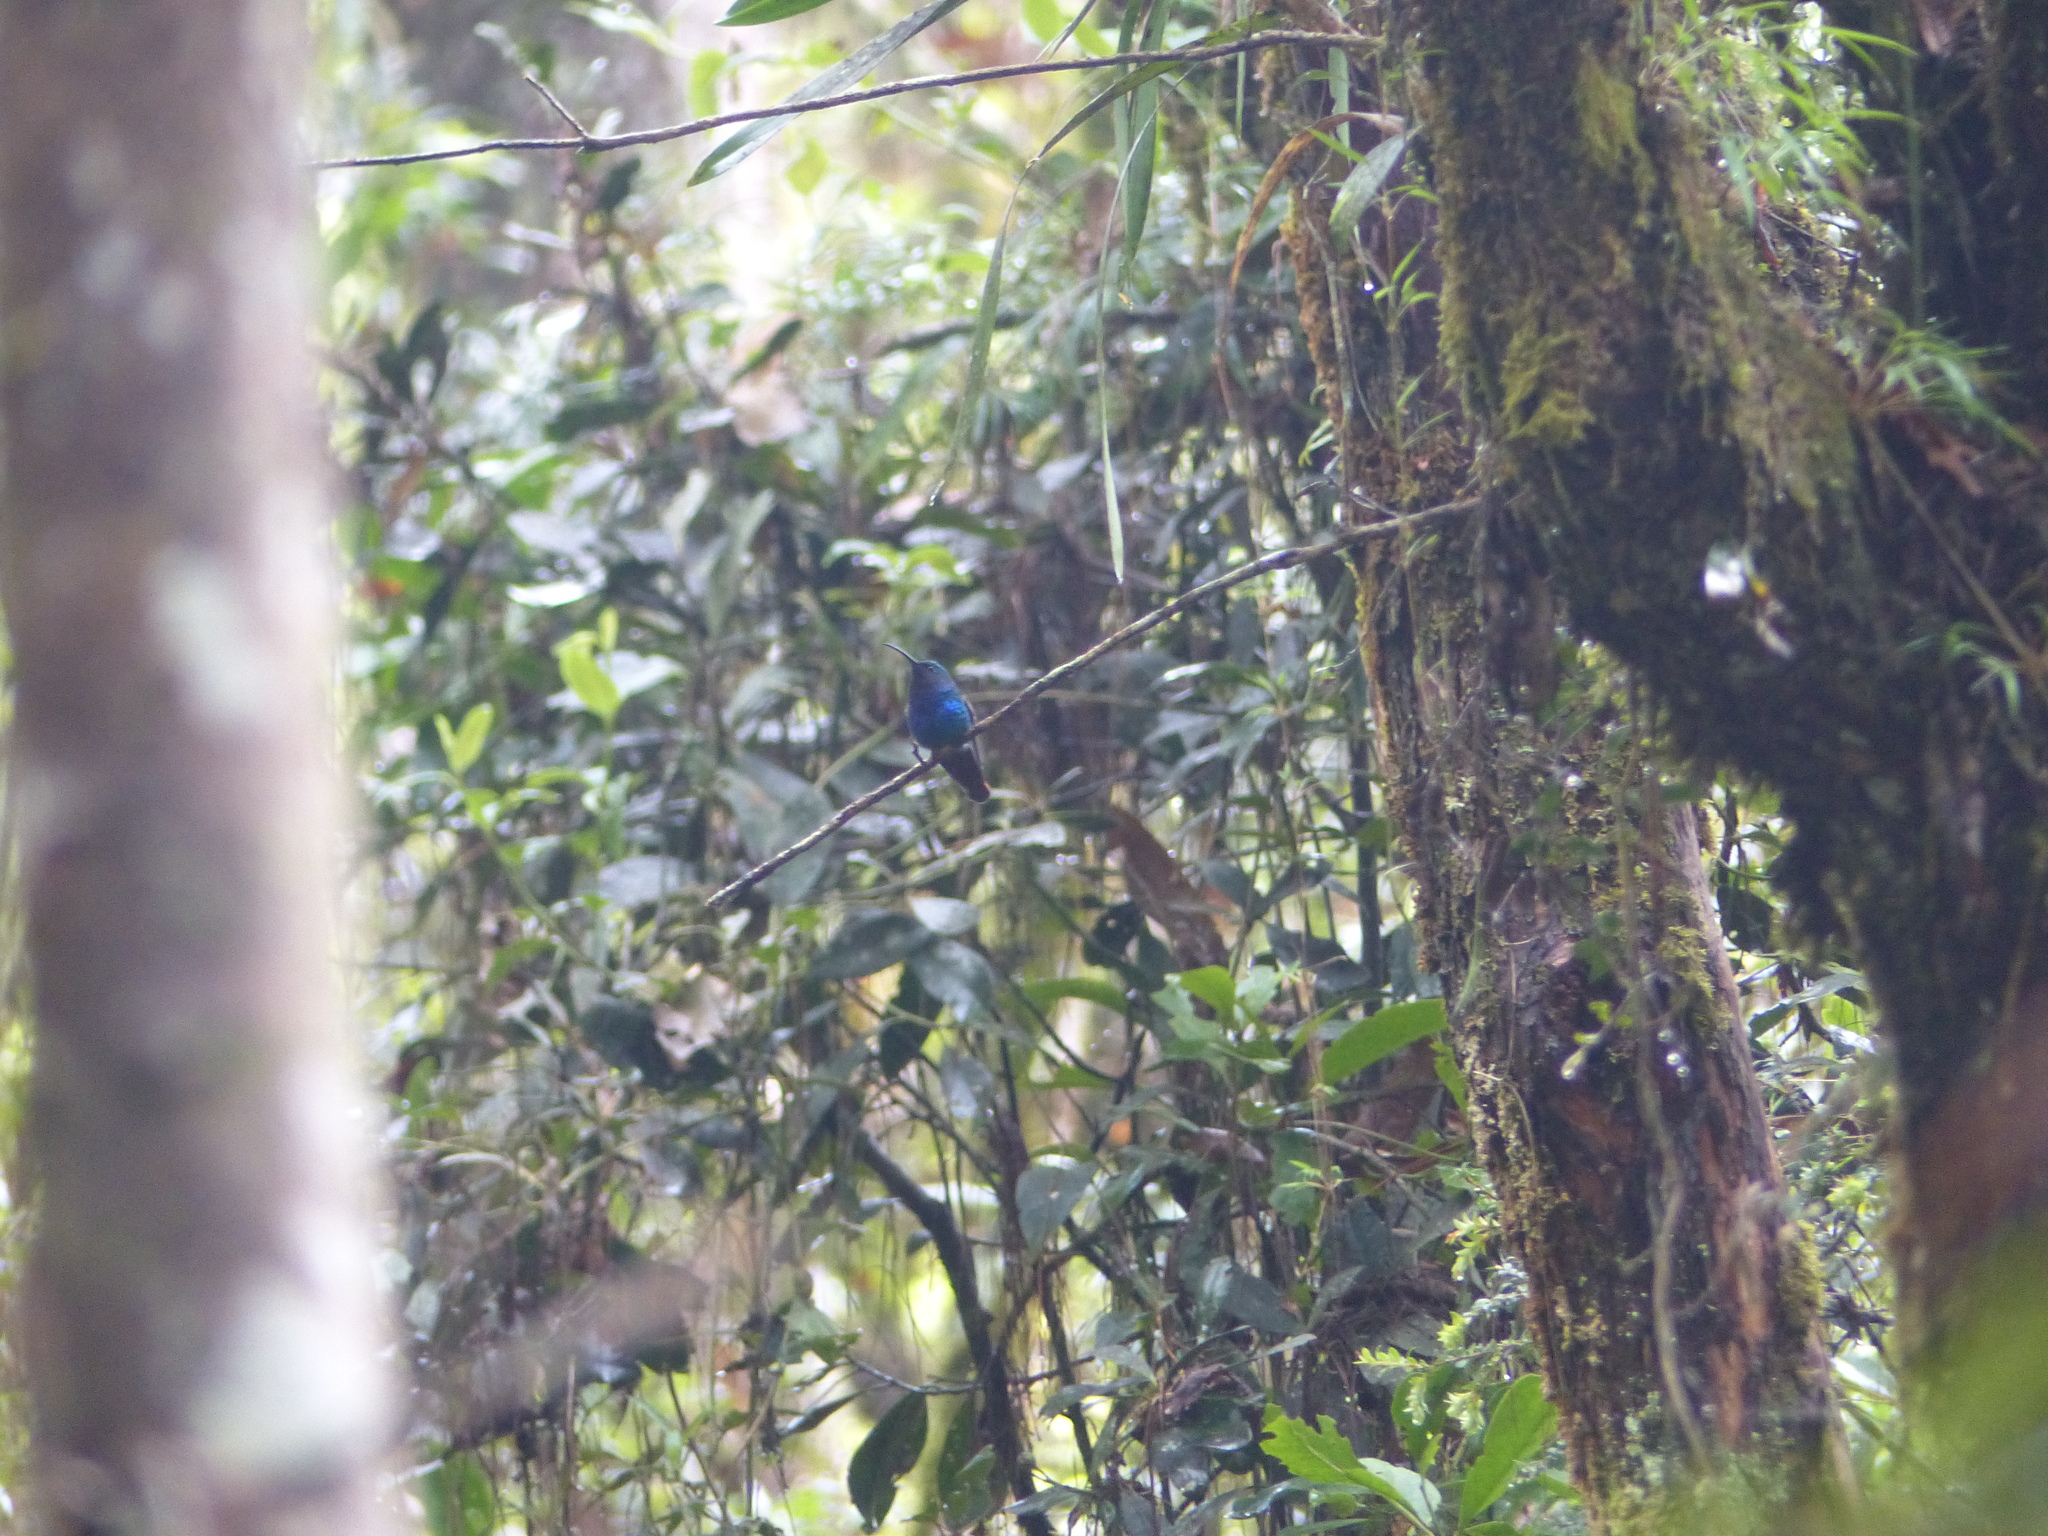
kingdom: Animalia
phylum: Chordata
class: Aves
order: Apodiformes
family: Trochilidae
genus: Campylopterus
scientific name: Campylopterus falcatus
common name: Lazuline sabrewing
